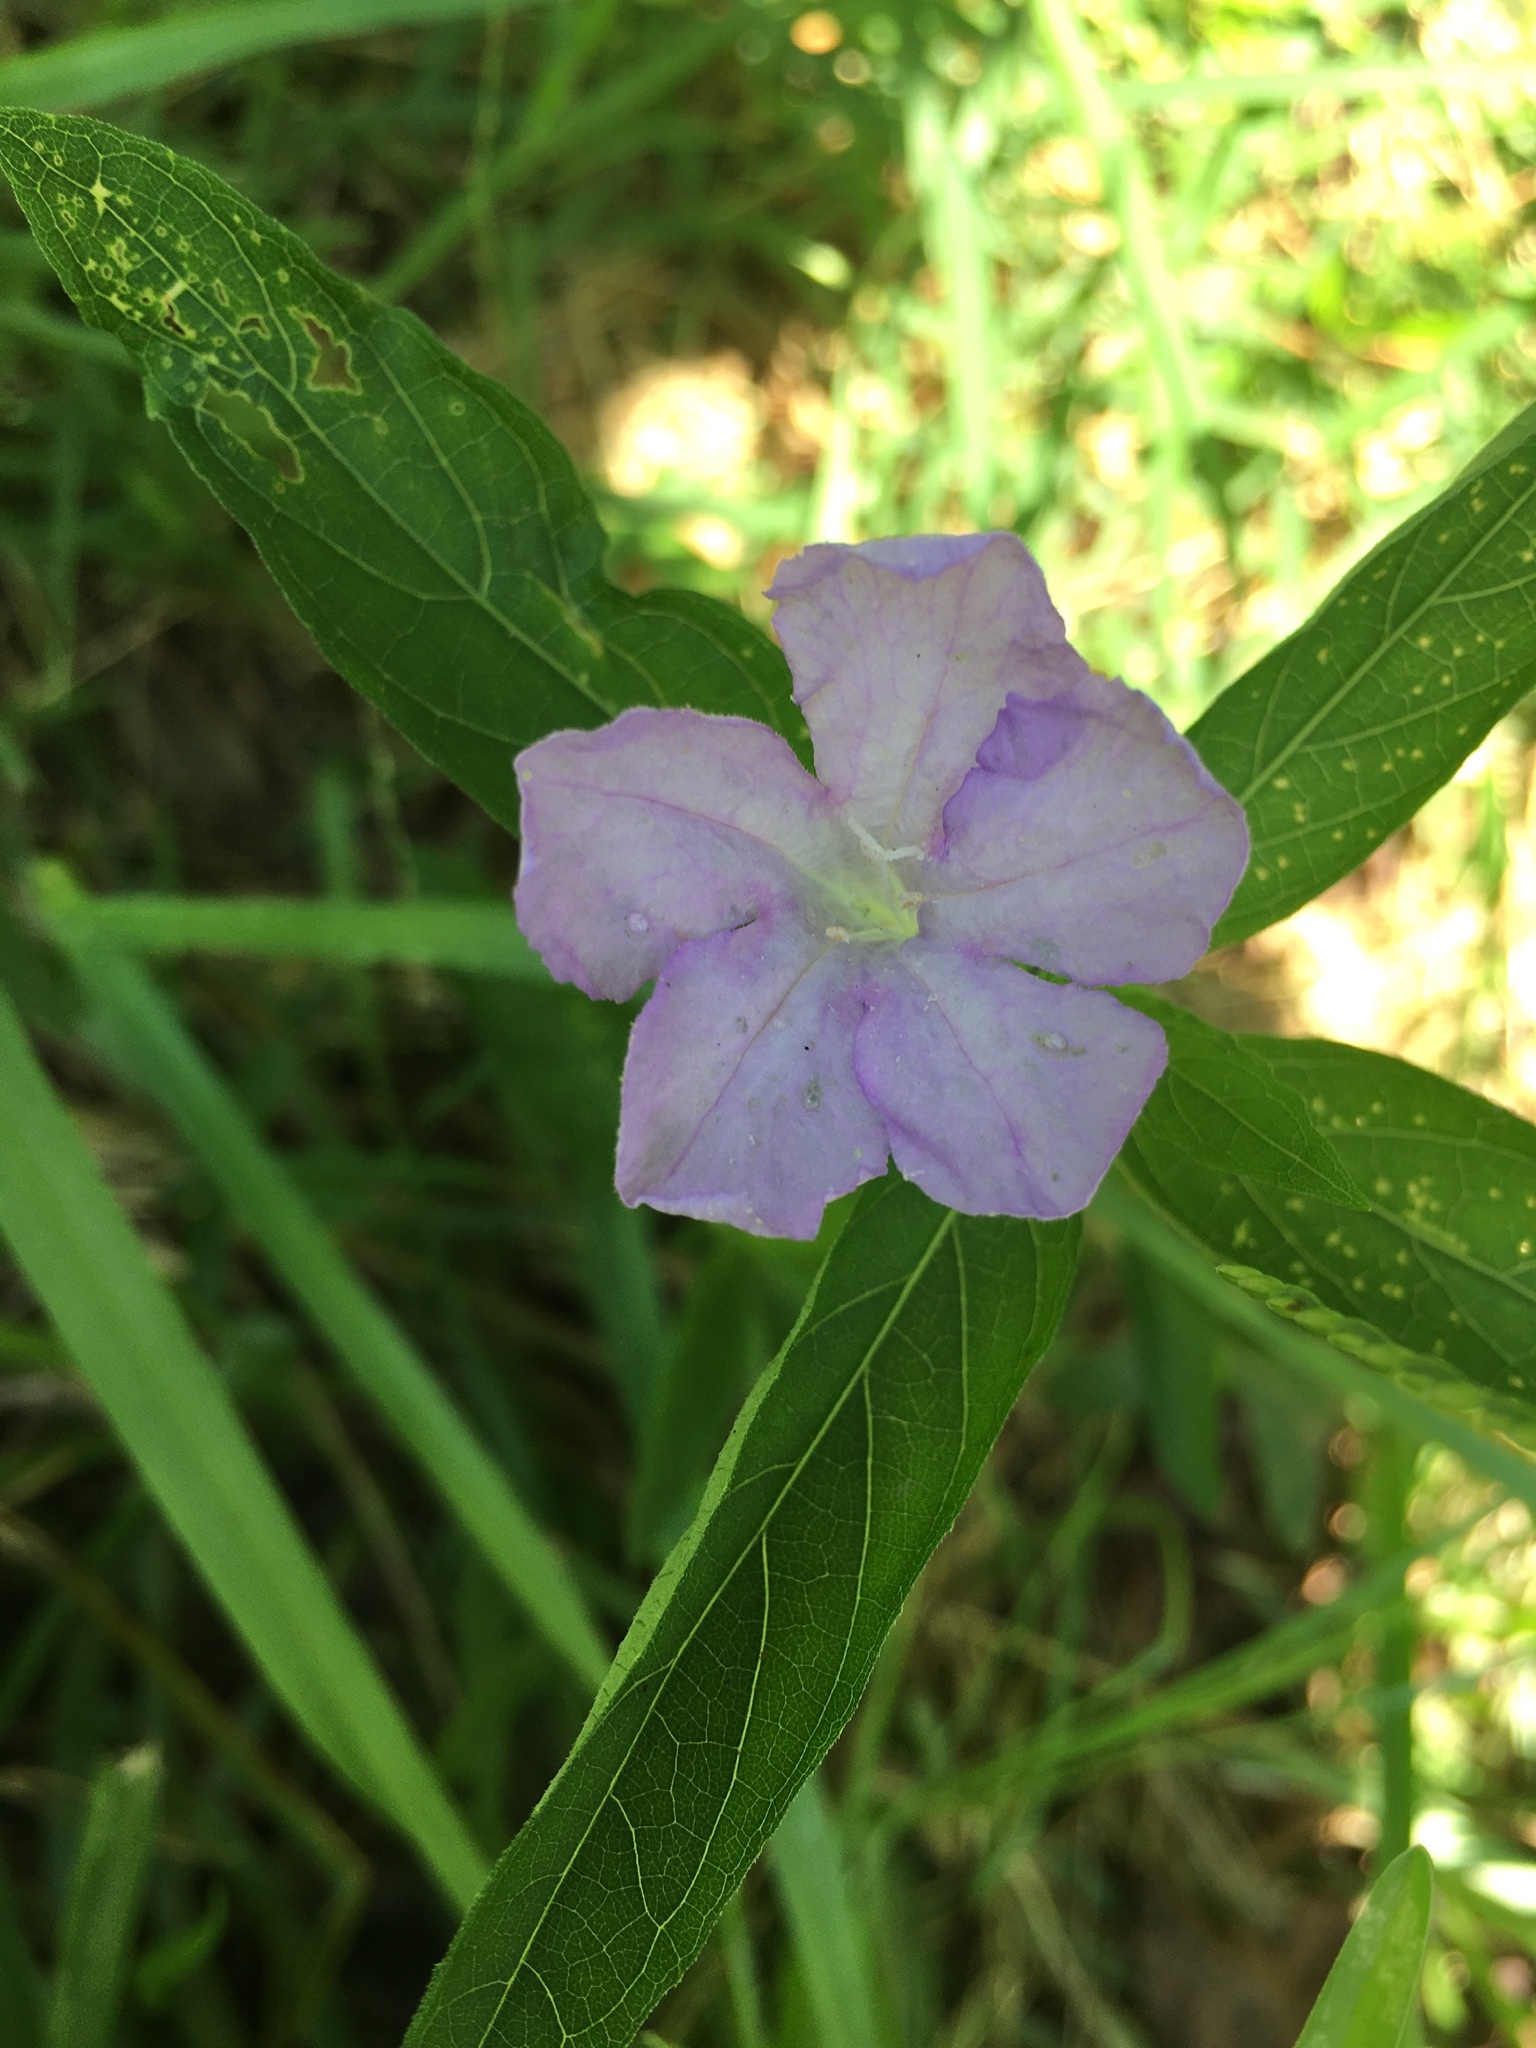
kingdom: Plantae
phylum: Tracheophyta
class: Magnoliopsida
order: Lamiales
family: Acanthaceae
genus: Ruellia
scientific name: Ruellia caroliniensis
